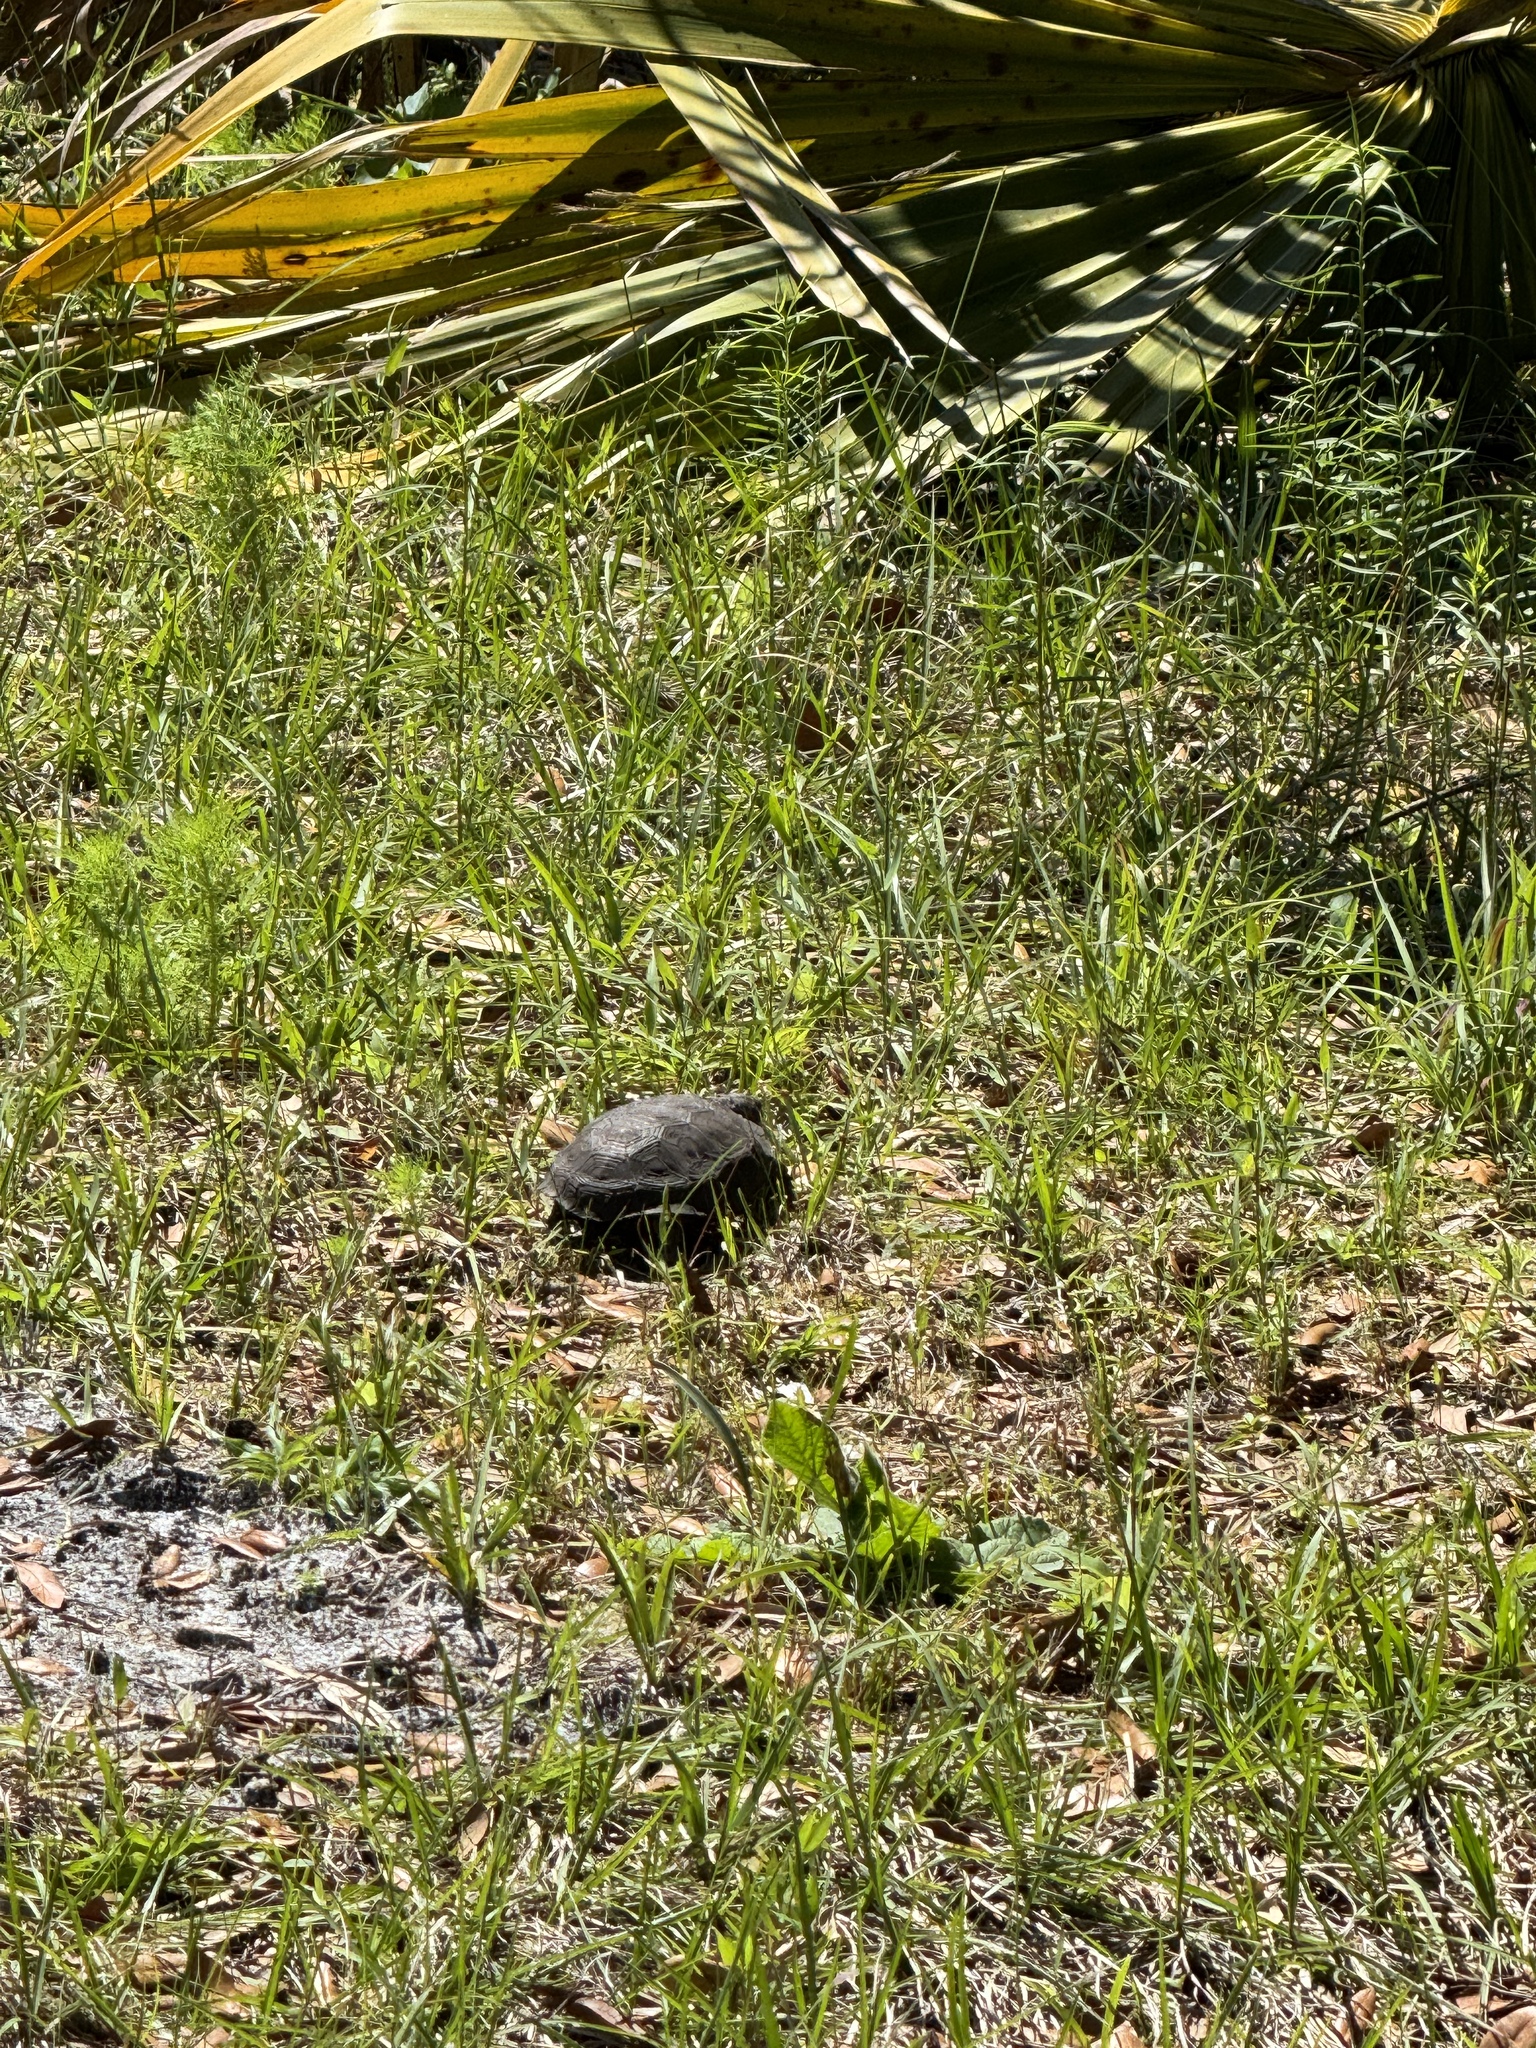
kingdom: Animalia
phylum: Chordata
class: Testudines
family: Testudinidae
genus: Gopherus
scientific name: Gopherus polyphemus
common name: Florida gopher tortoise
